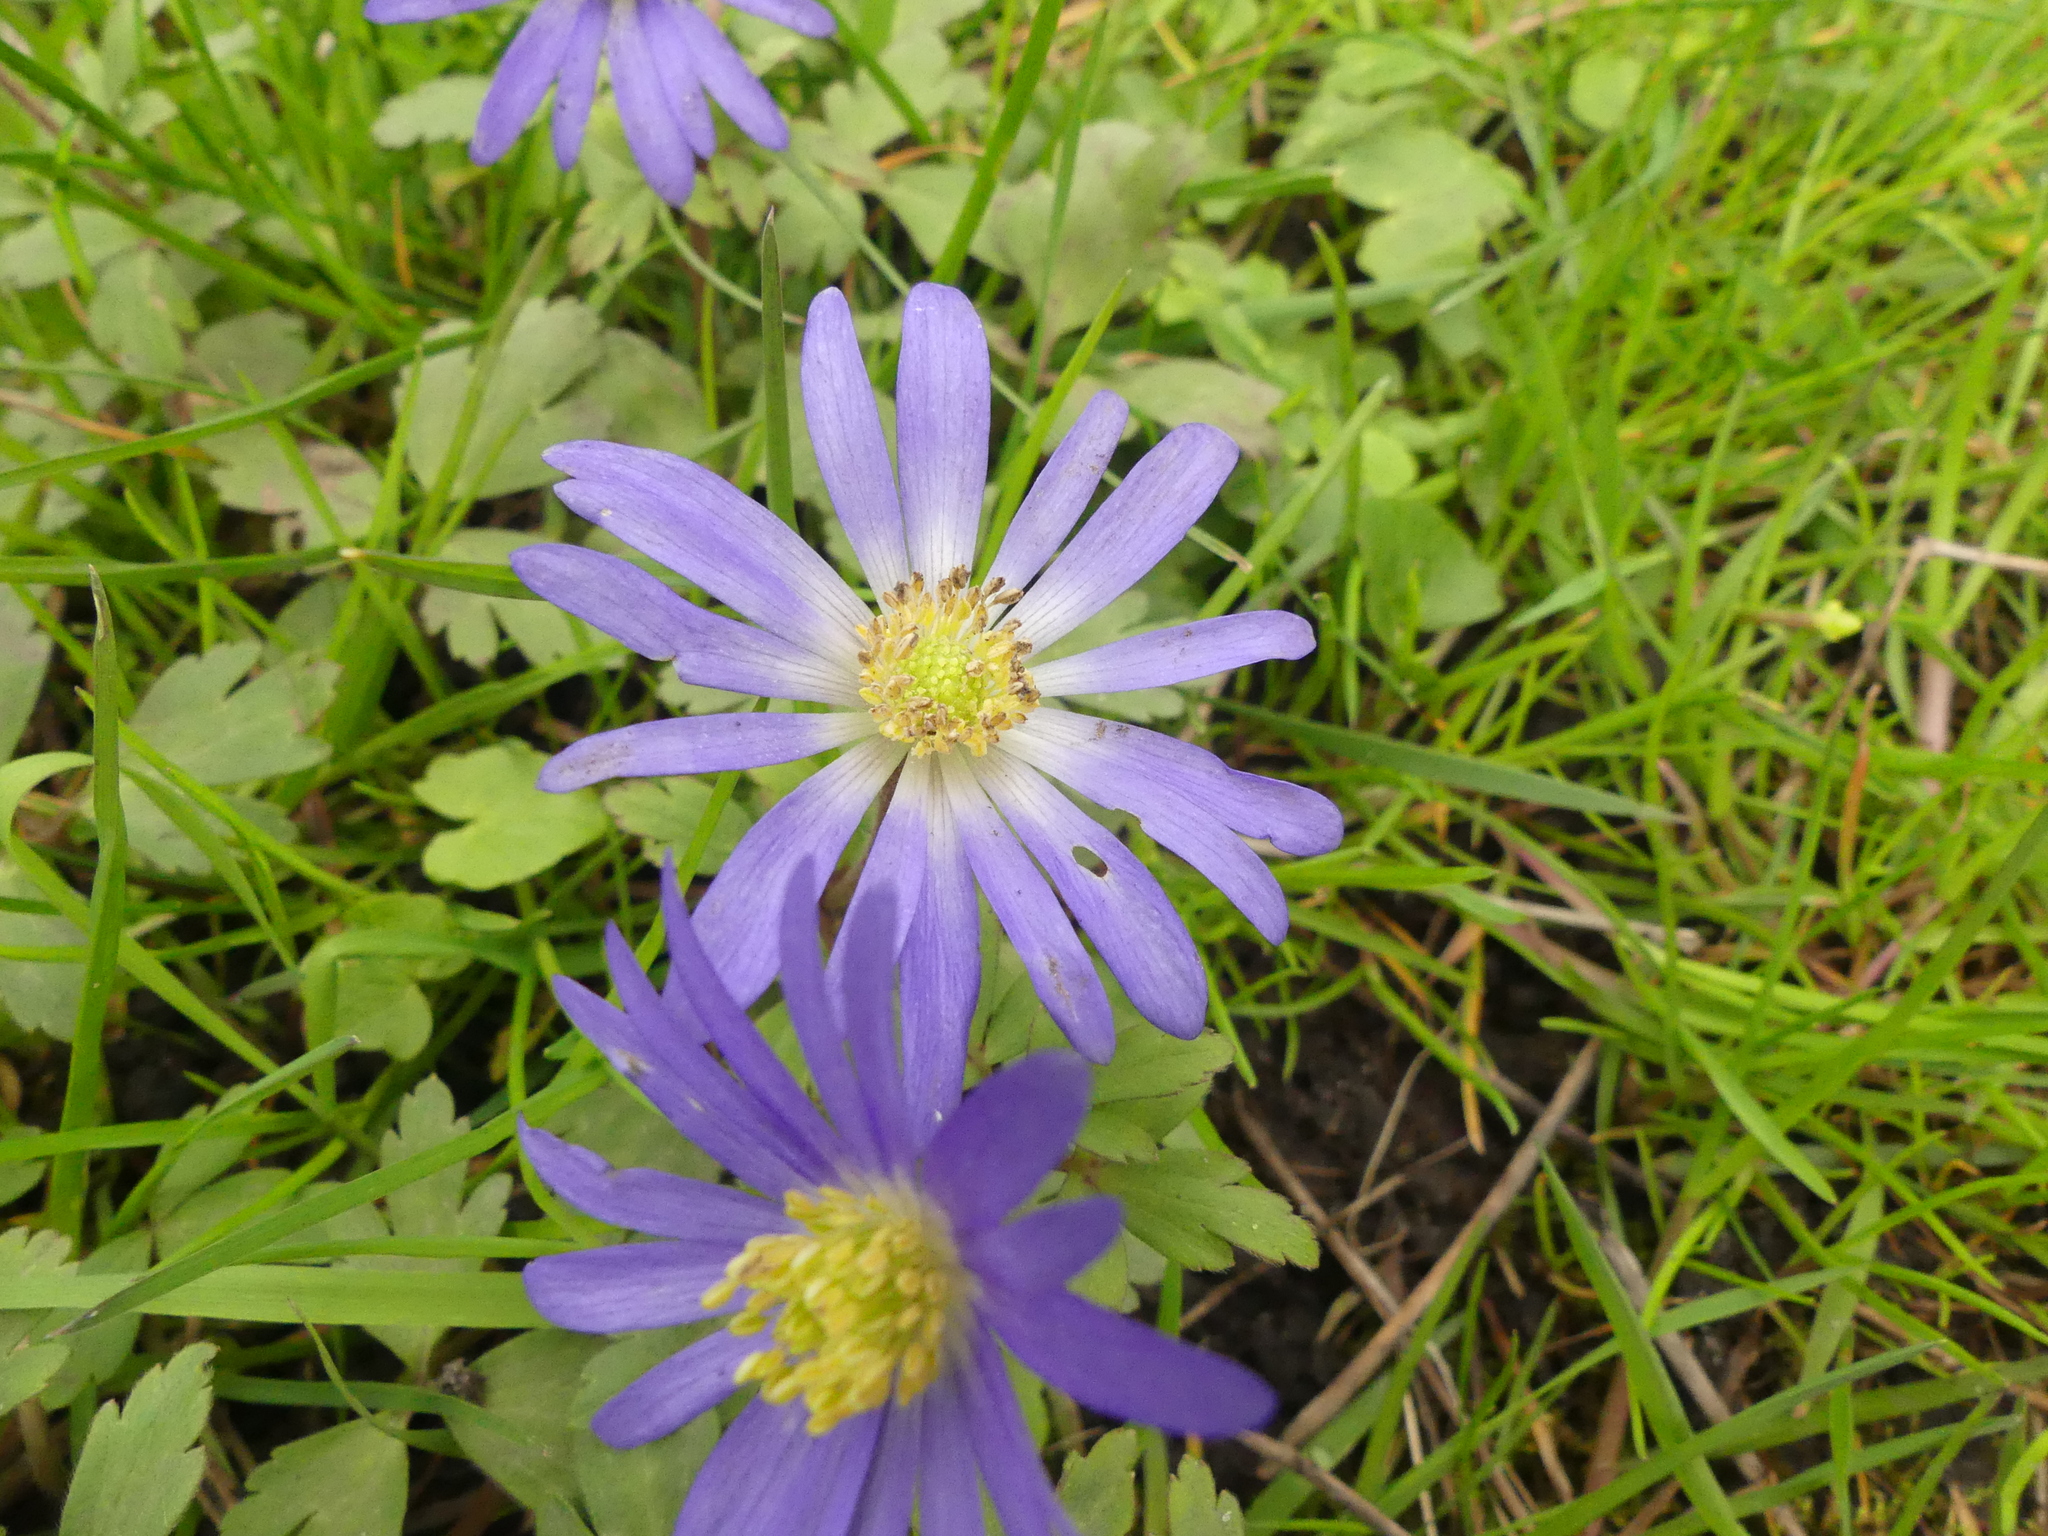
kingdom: Plantae
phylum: Tracheophyta
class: Magnoliopsida
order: Ranunculales
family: Ranunculaceae
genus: Anemone
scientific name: Anemone blanda
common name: Balkan anemone
